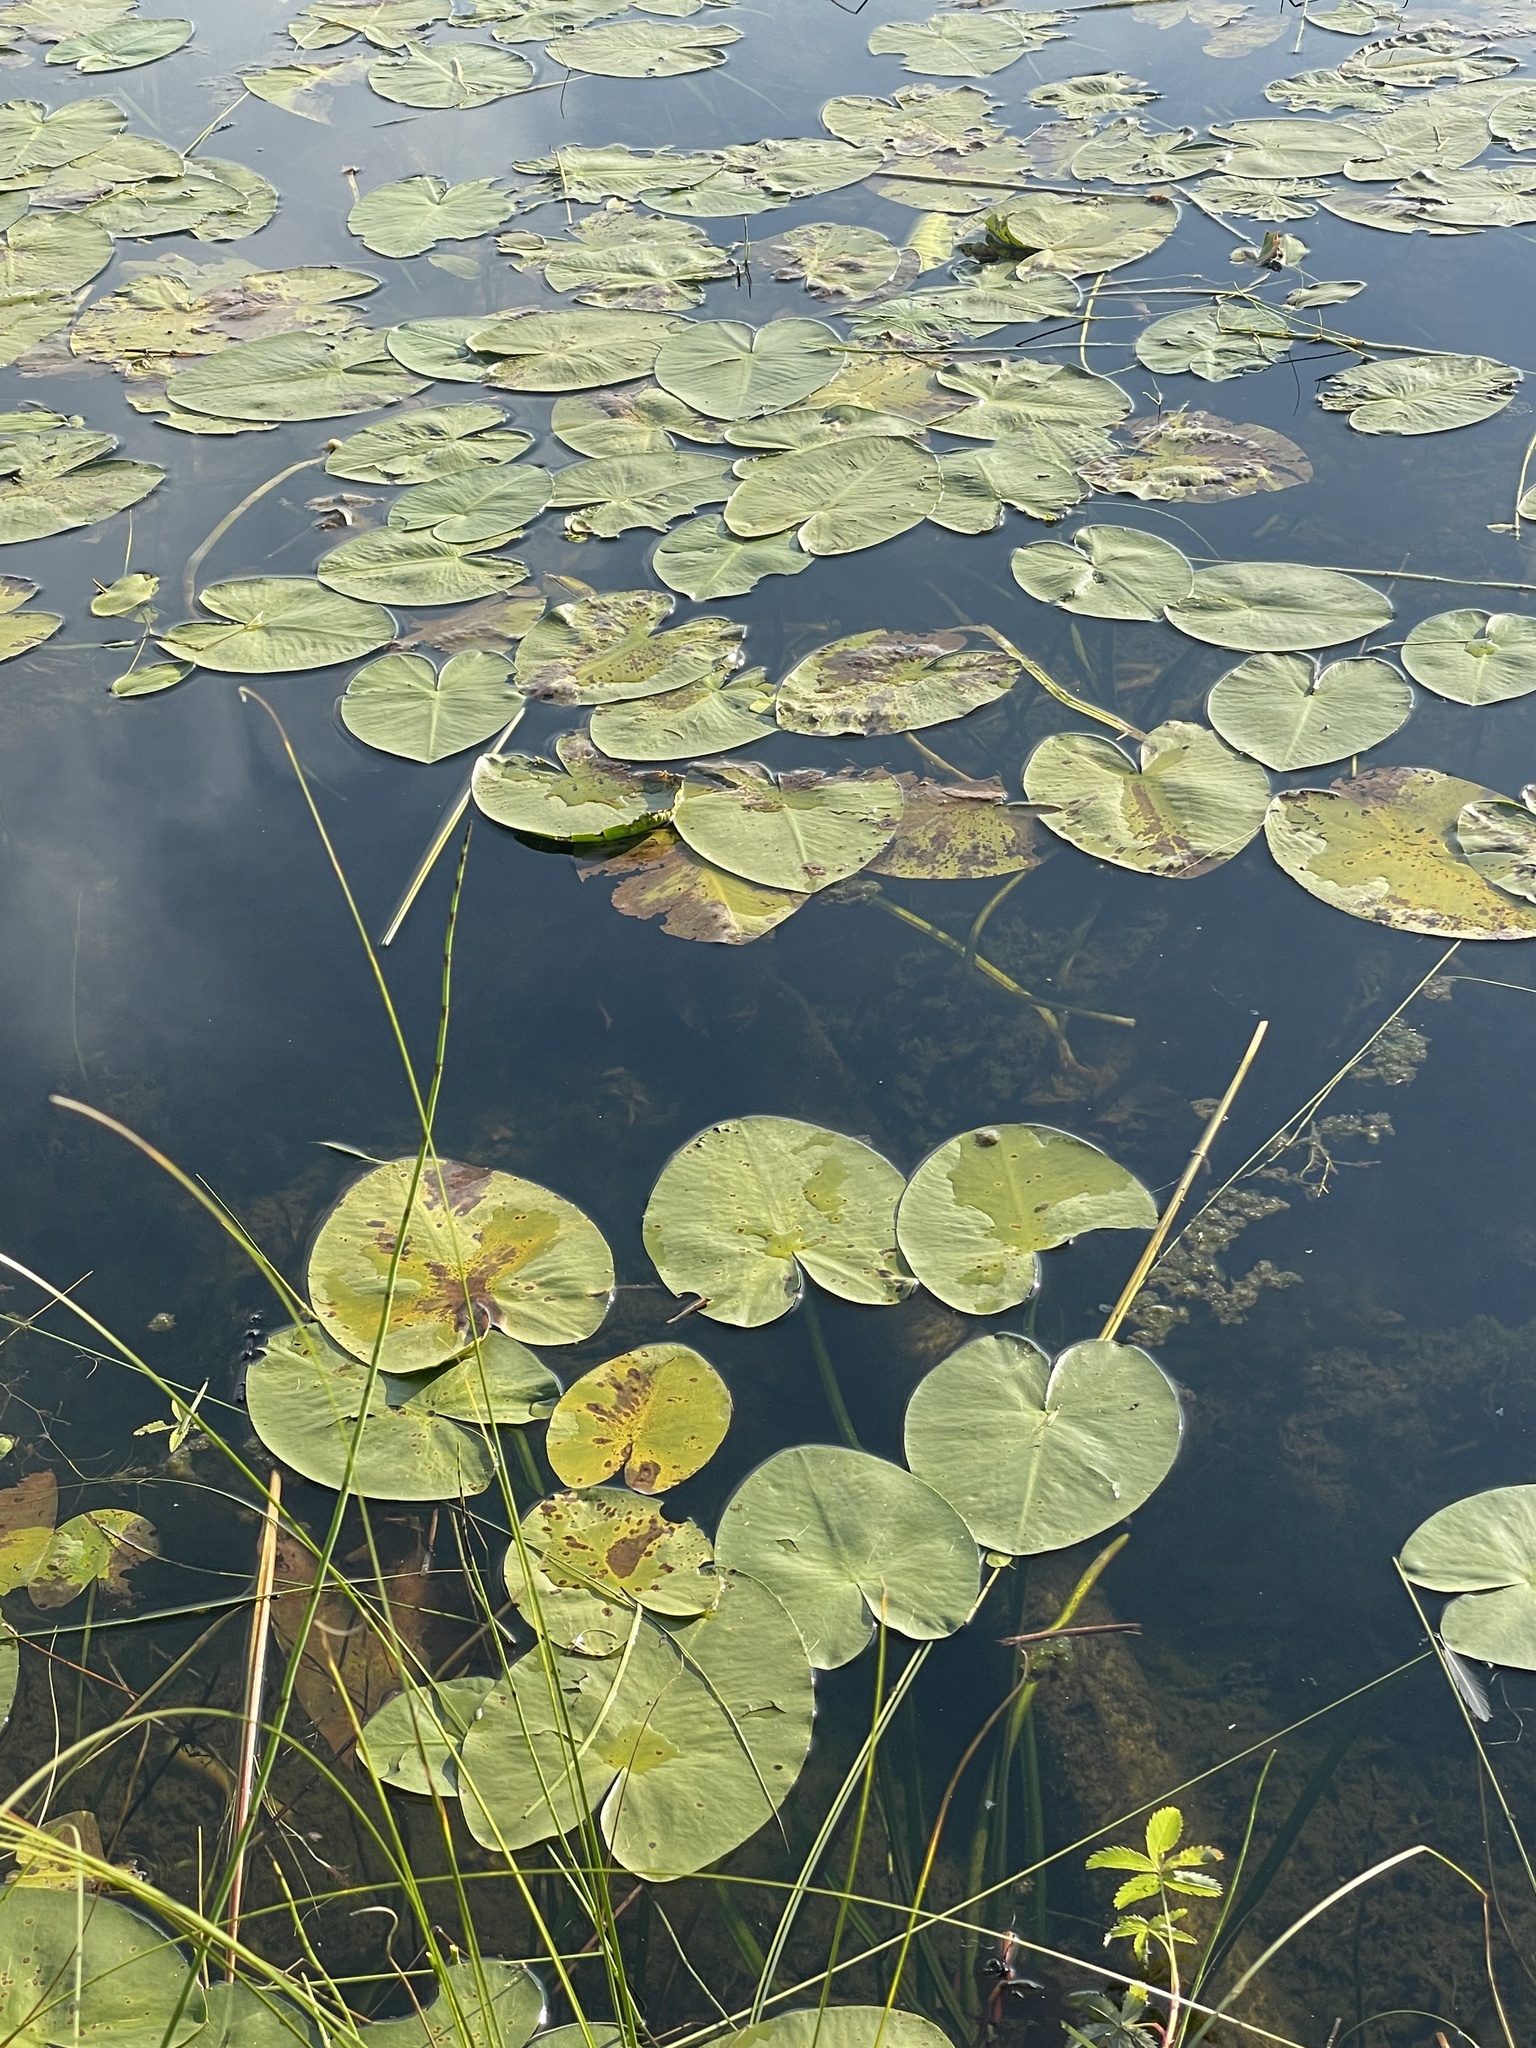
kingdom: Plantae
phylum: Tracheophyta
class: Magnoliopsida
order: Nymphaeales
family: Nymphaeaceae
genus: Nuphar
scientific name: Nuphar variegata
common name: Beaver-root
